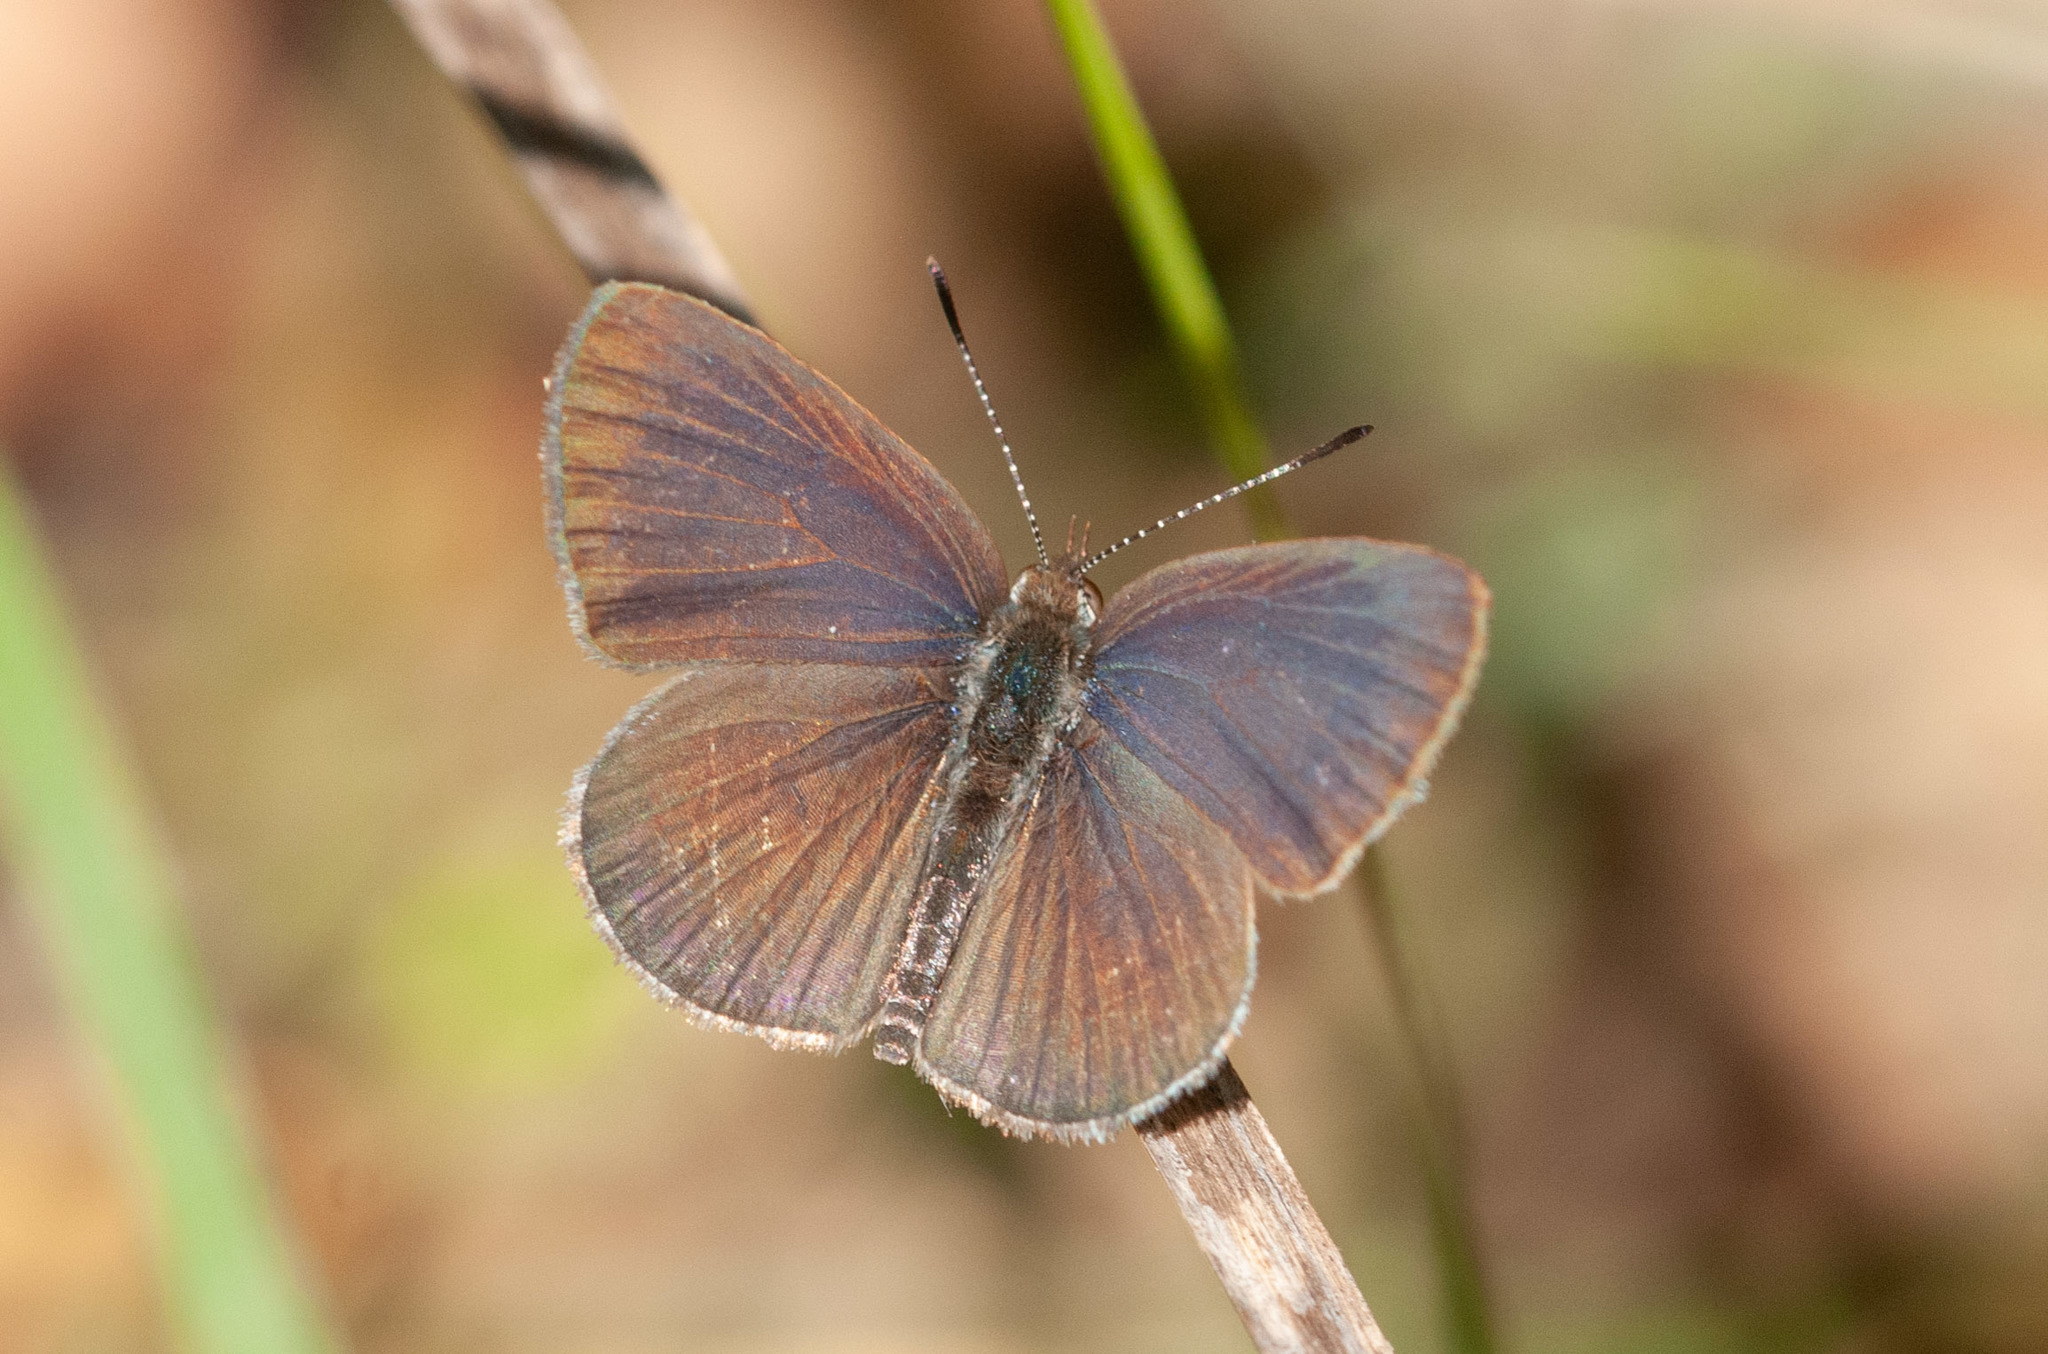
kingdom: Animalia
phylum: Arthropoda
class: Insecta
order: Lepidoptera
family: Lycaenidae
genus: Candalides
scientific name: Candalides
